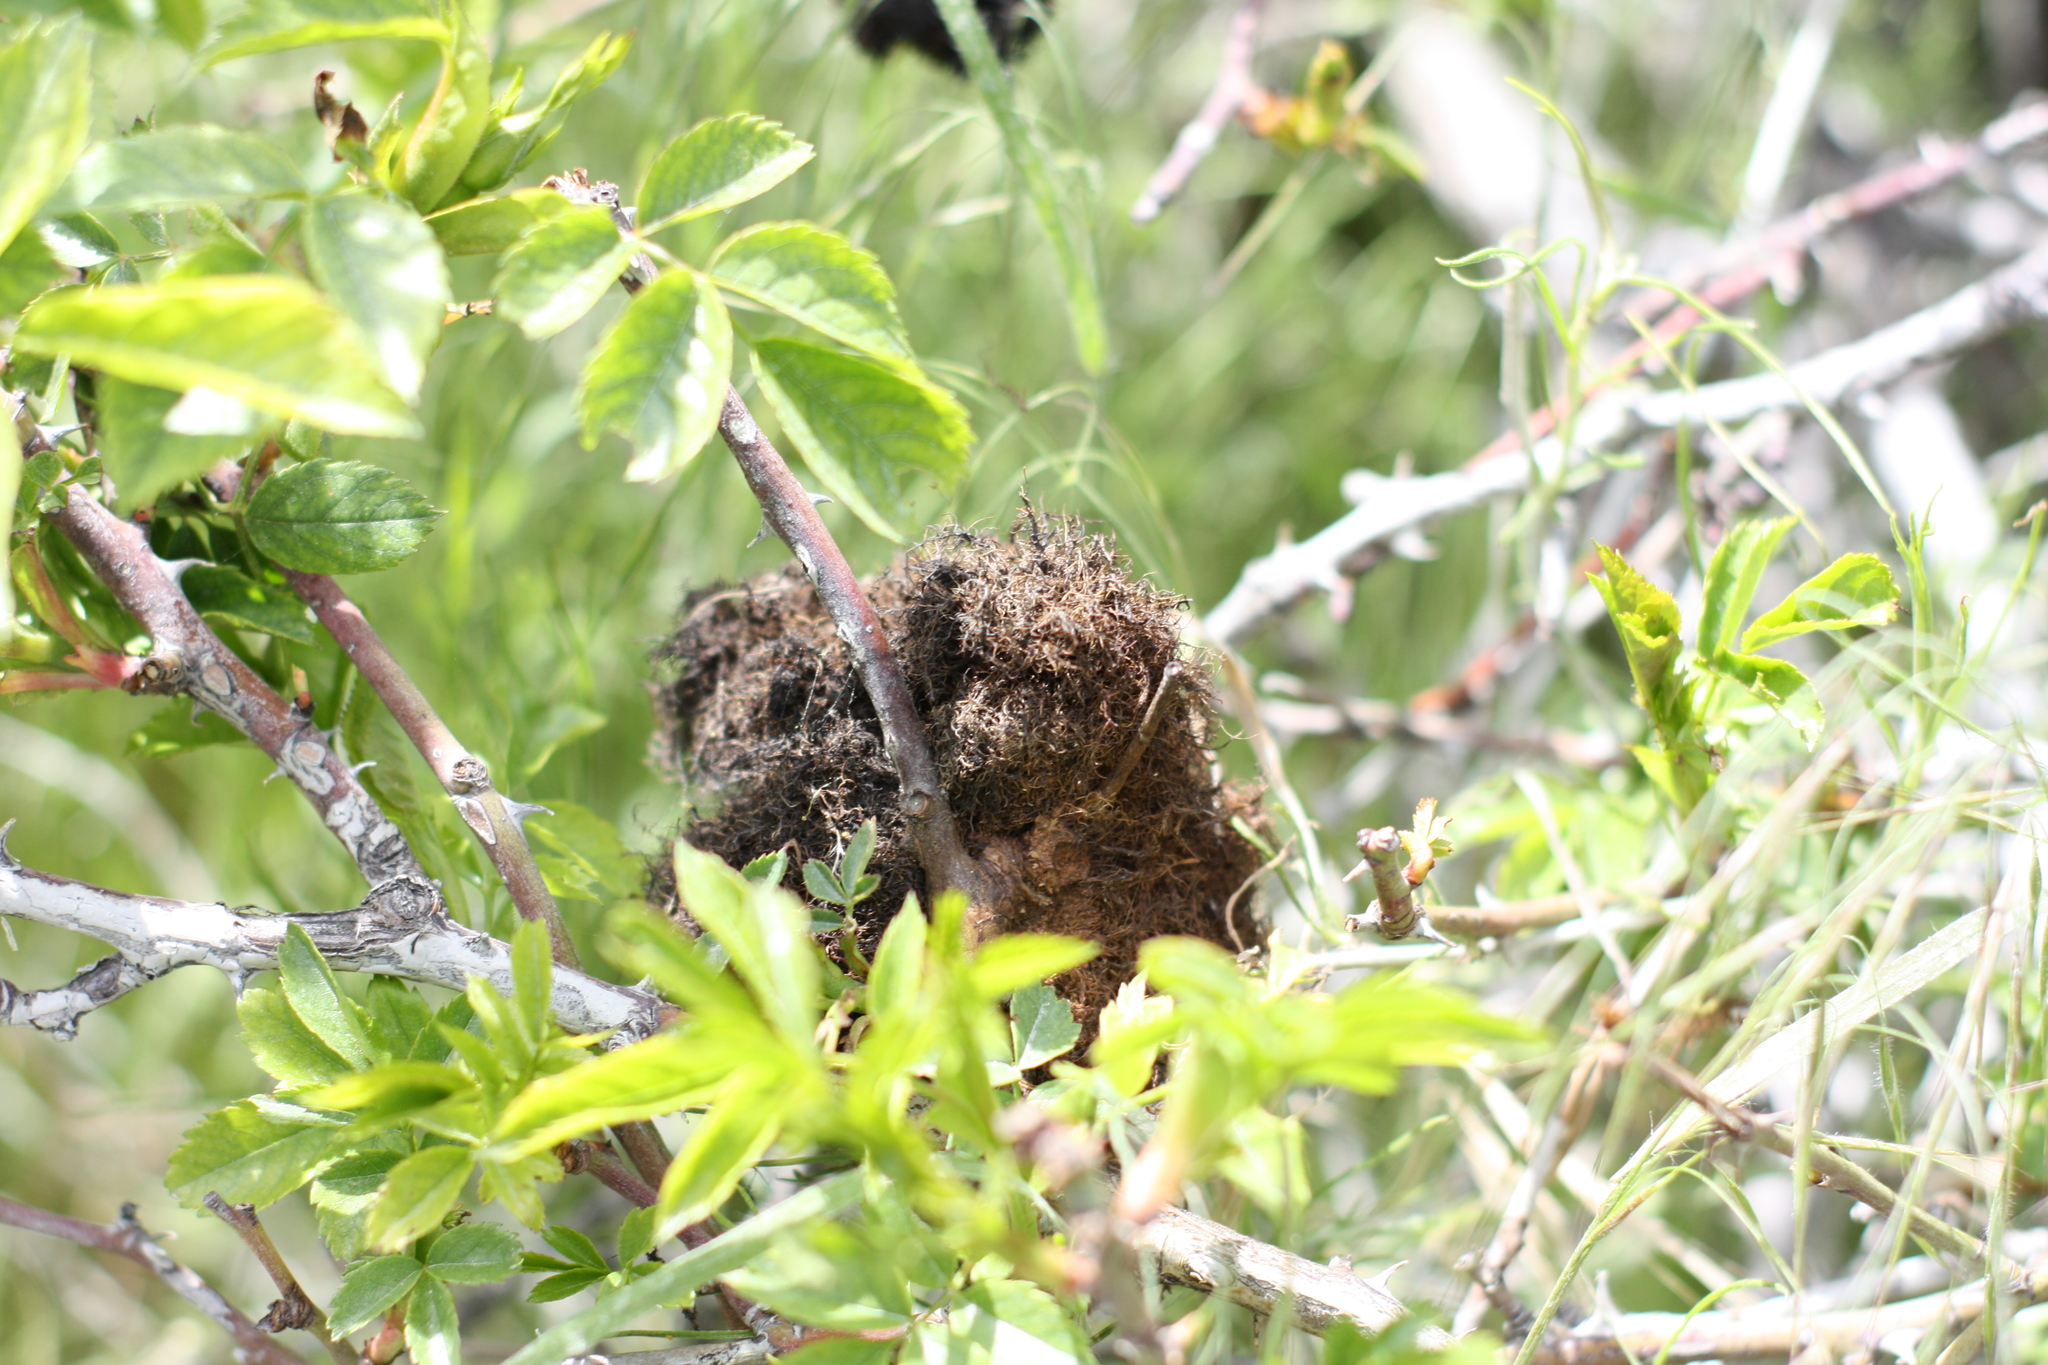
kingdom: Animalia
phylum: Arthropoda
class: Insecta
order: Hymenoptera
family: Cynipidae
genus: Diplolepis
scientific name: Diplolepis rosae
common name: Bedeguar gall
